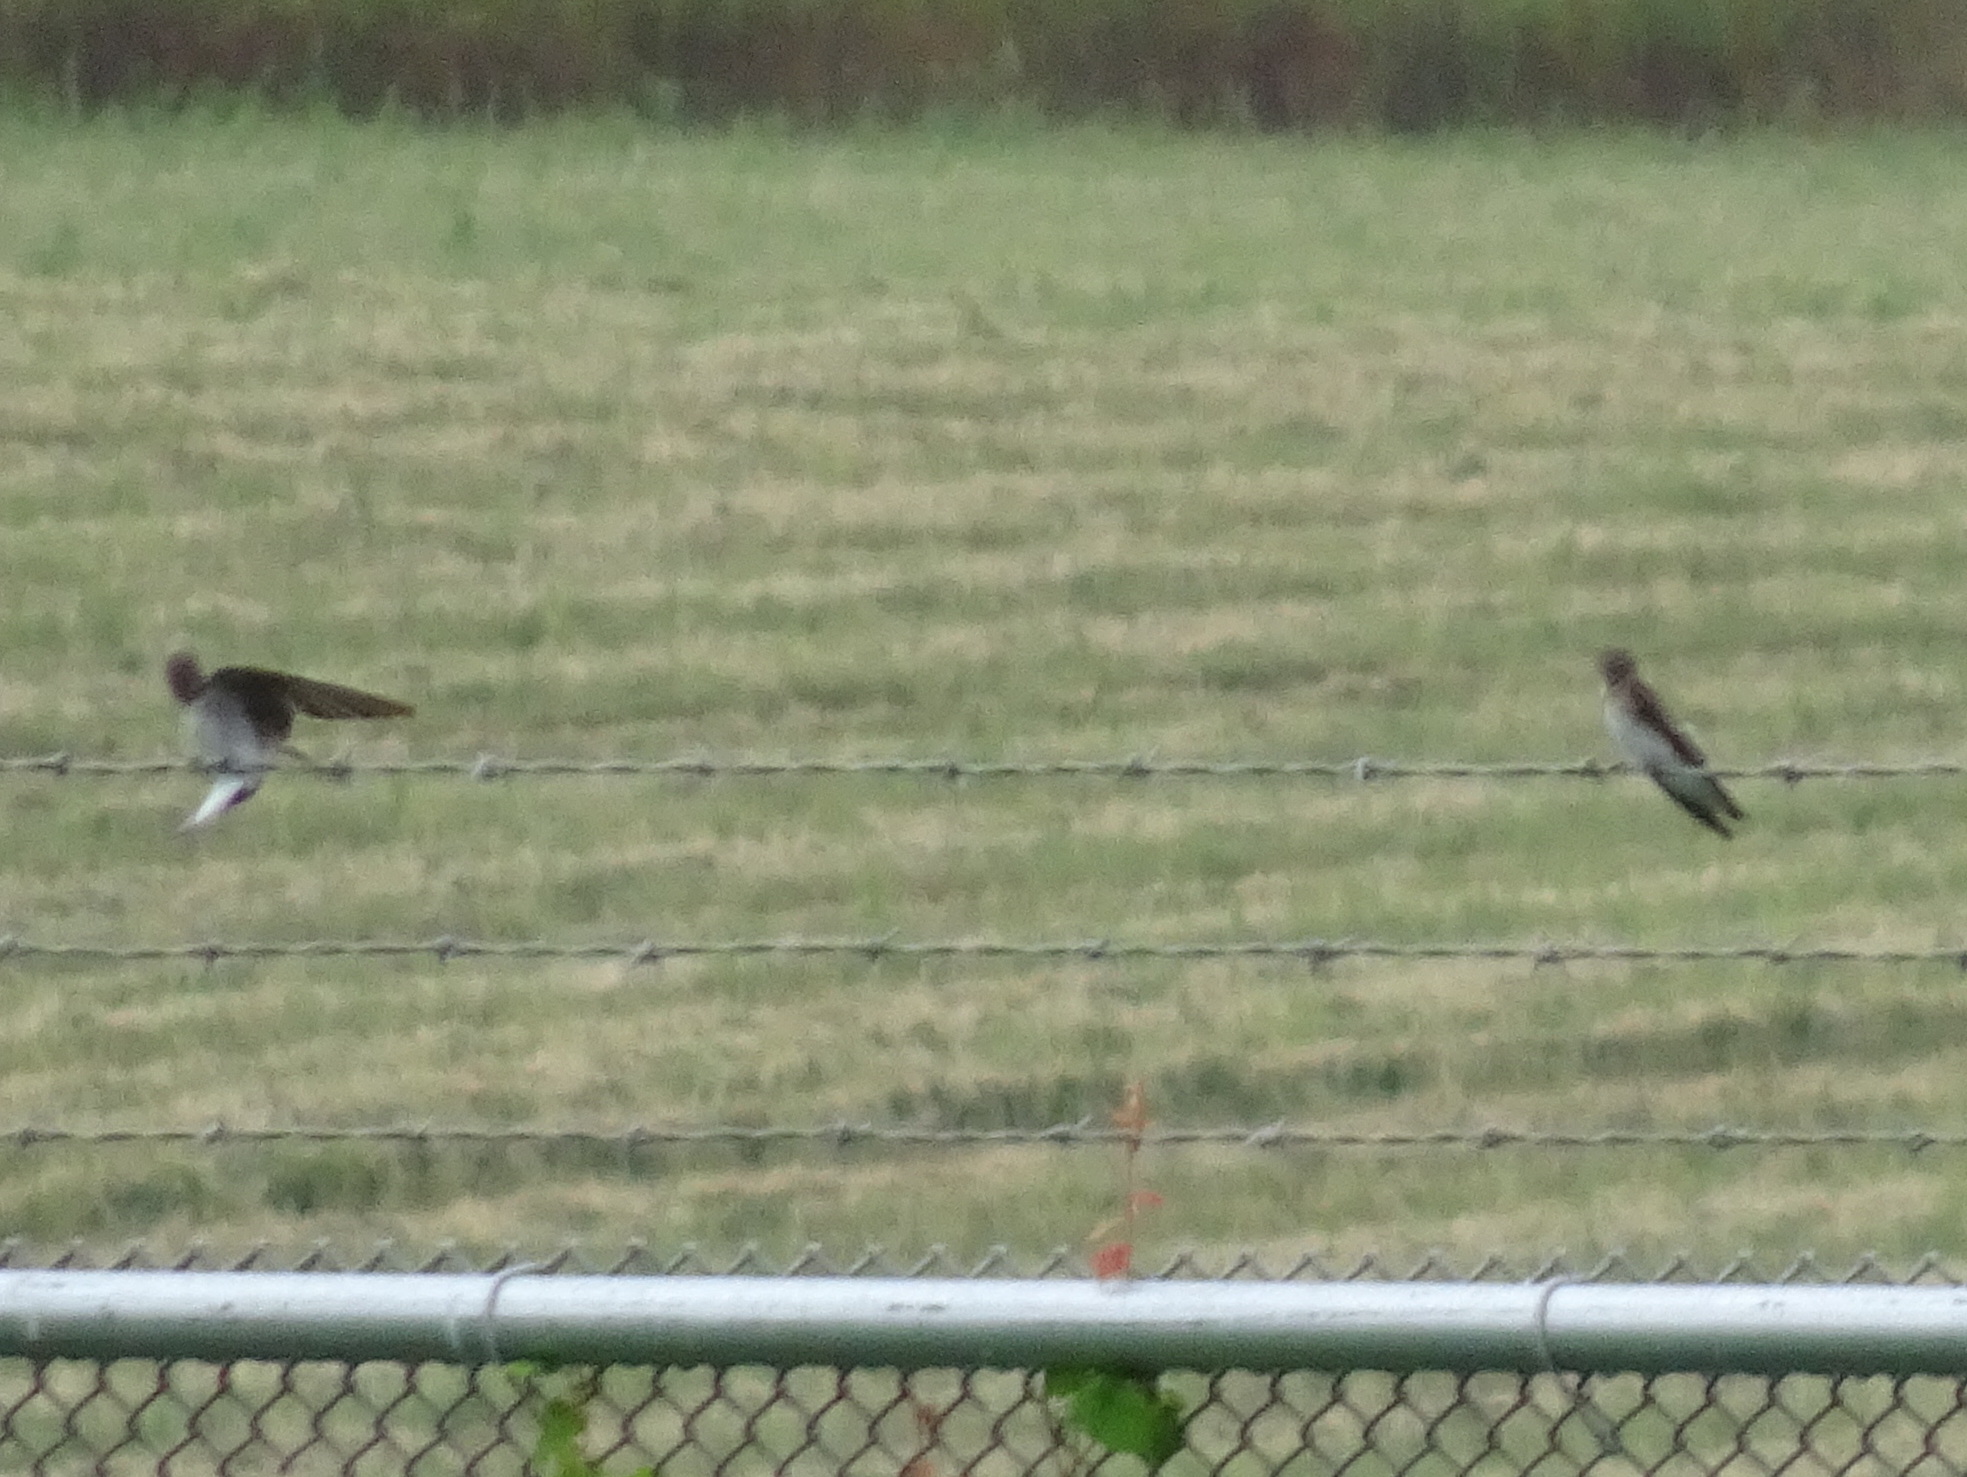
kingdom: Animalia
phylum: Chordata
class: Aves
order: Passeriformes
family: Hirundinidae
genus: Stelgidopteryx
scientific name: Stelgidopteryx serripennis
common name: Northern rough-winged swallow
